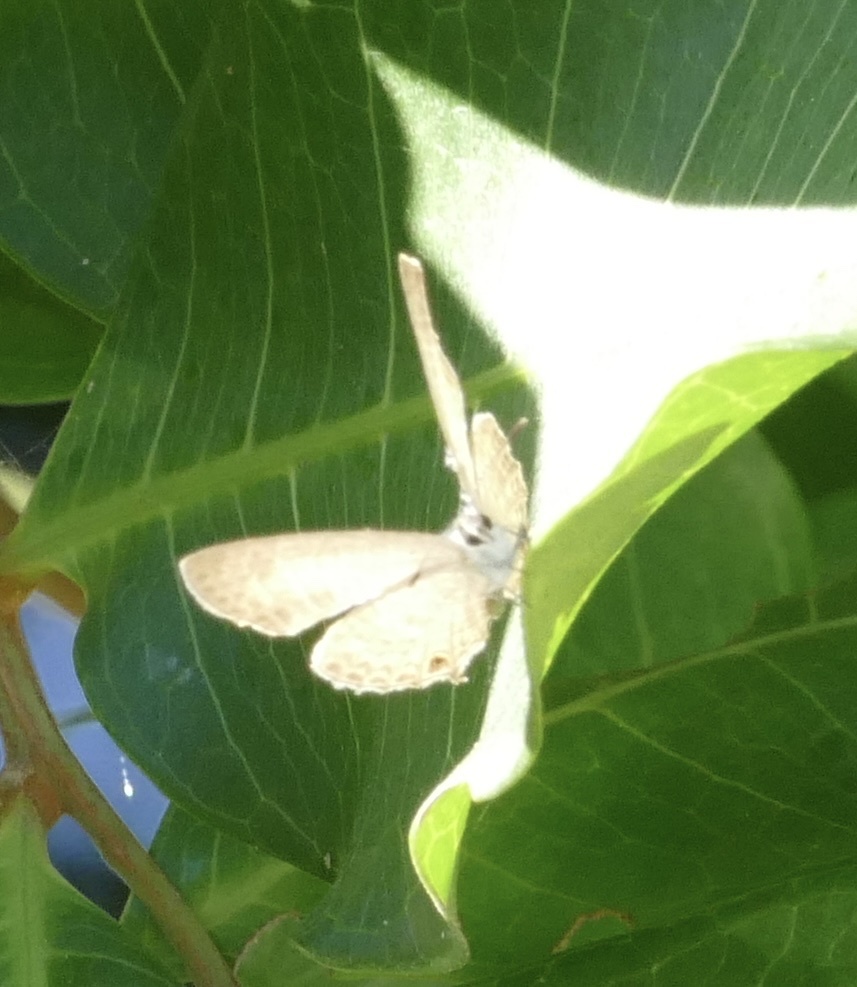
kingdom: Animalia
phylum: Arthropoda
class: Insecta
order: Lepidoptera
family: Lycaenidae
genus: Nacaduba
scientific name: Nacaduba berenice
